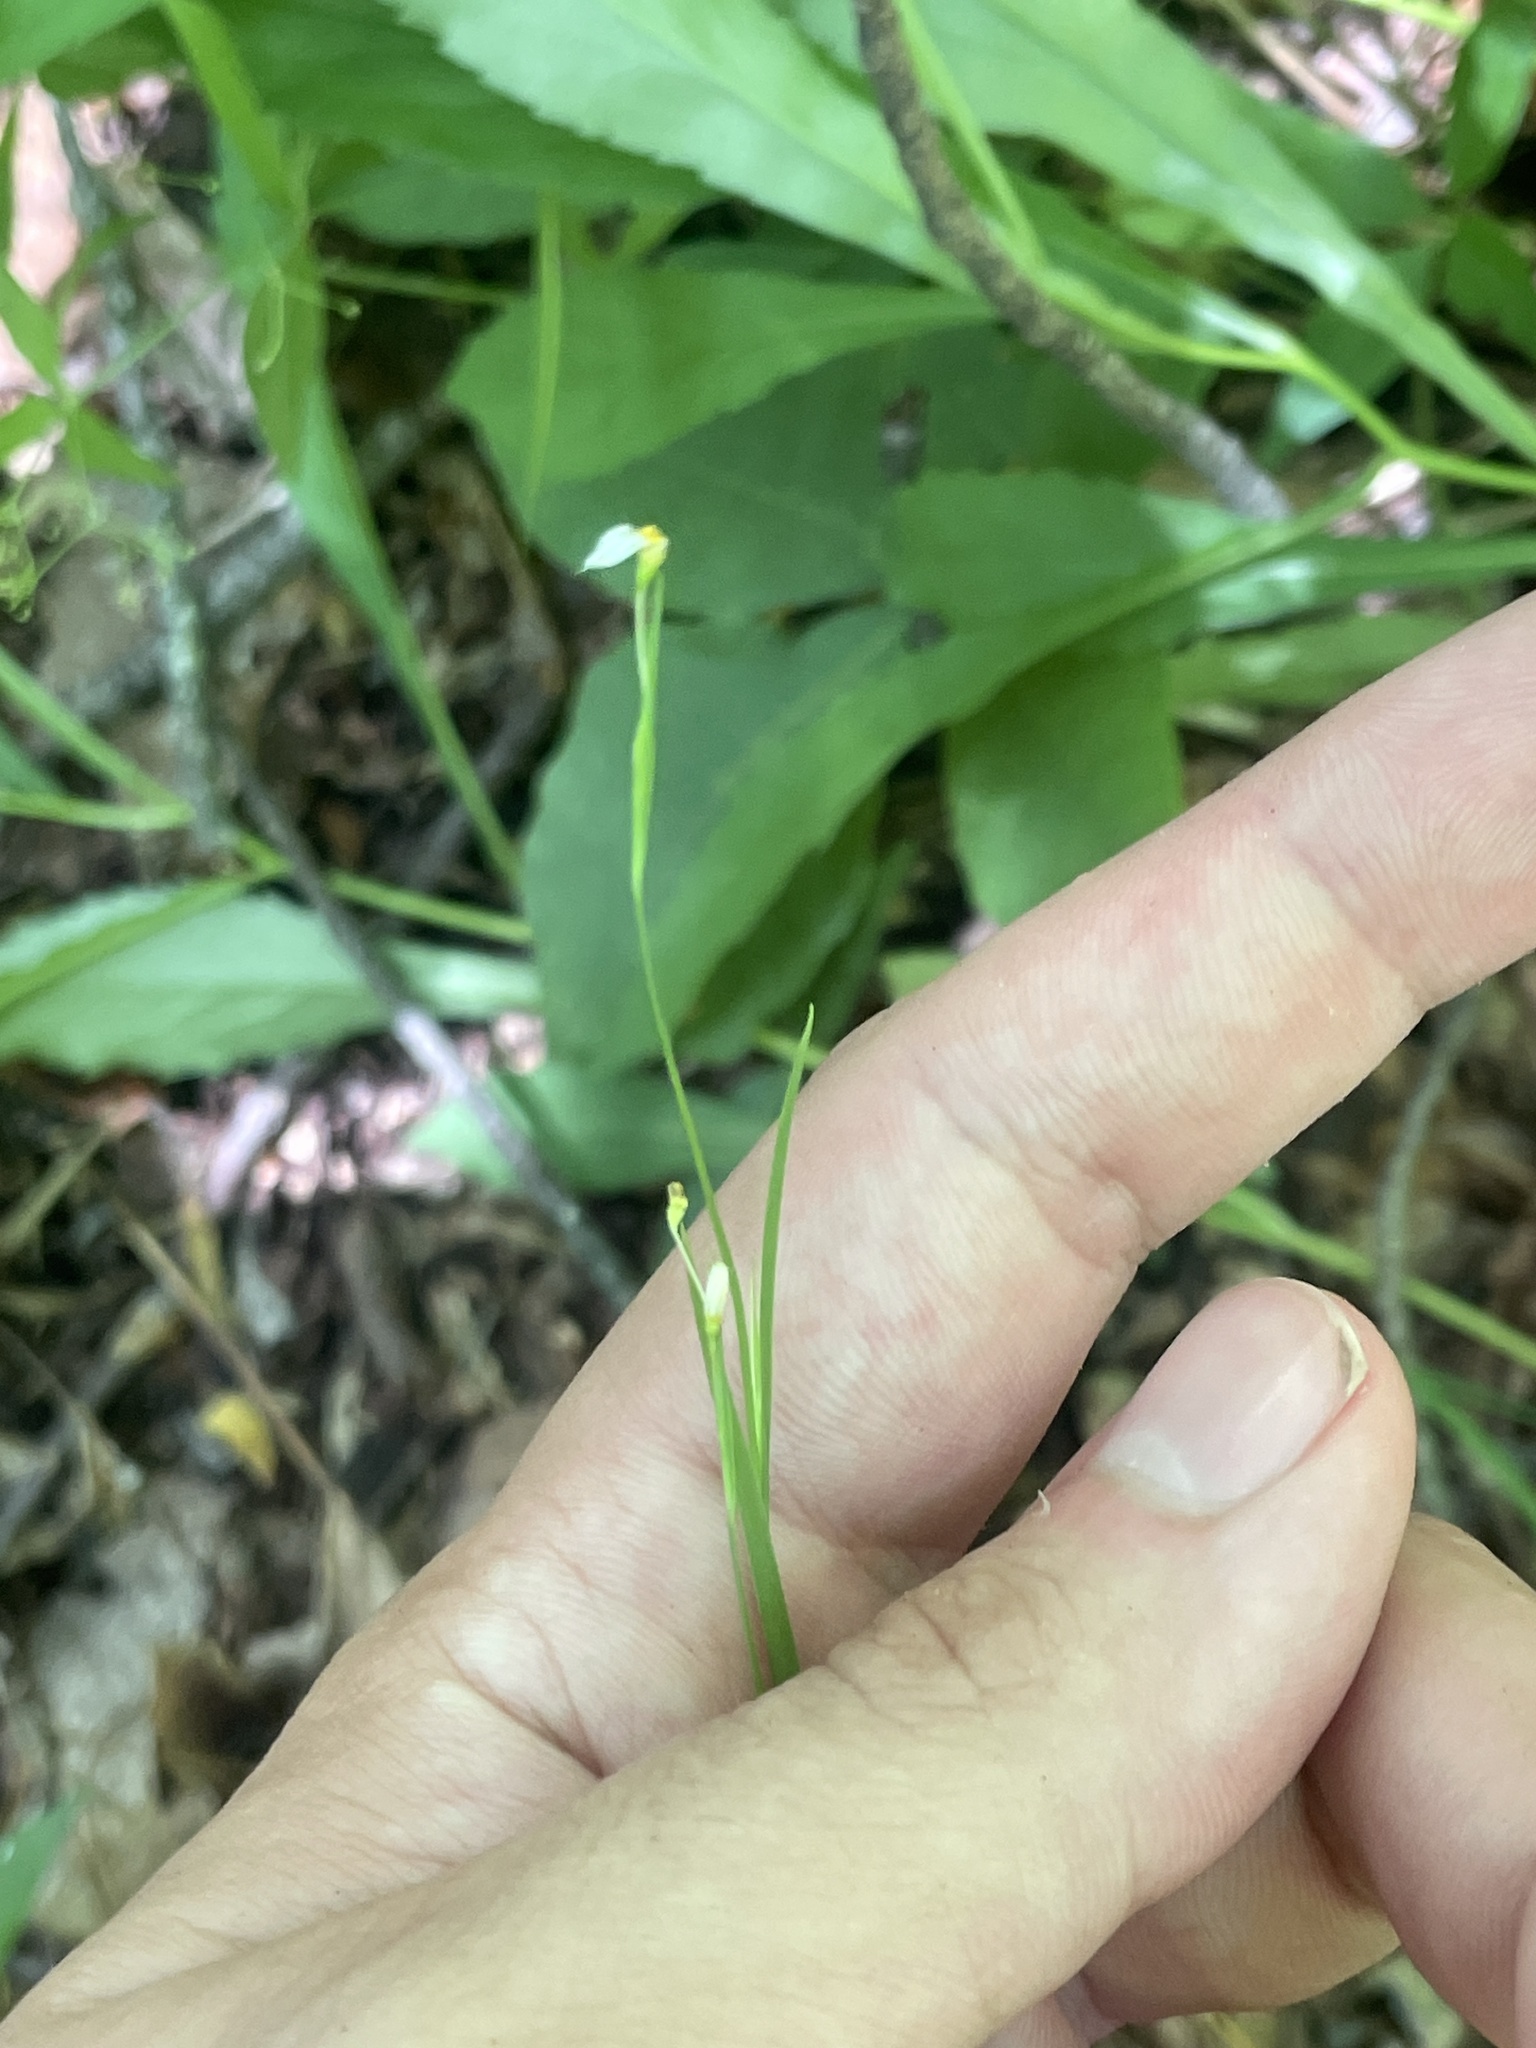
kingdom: Plantae
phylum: Tracheophyta
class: Liliopsida
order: Asparagales
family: Iridaceae
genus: Sisyrinchium
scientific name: Sisyrinchium dichotomum
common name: White irisette
